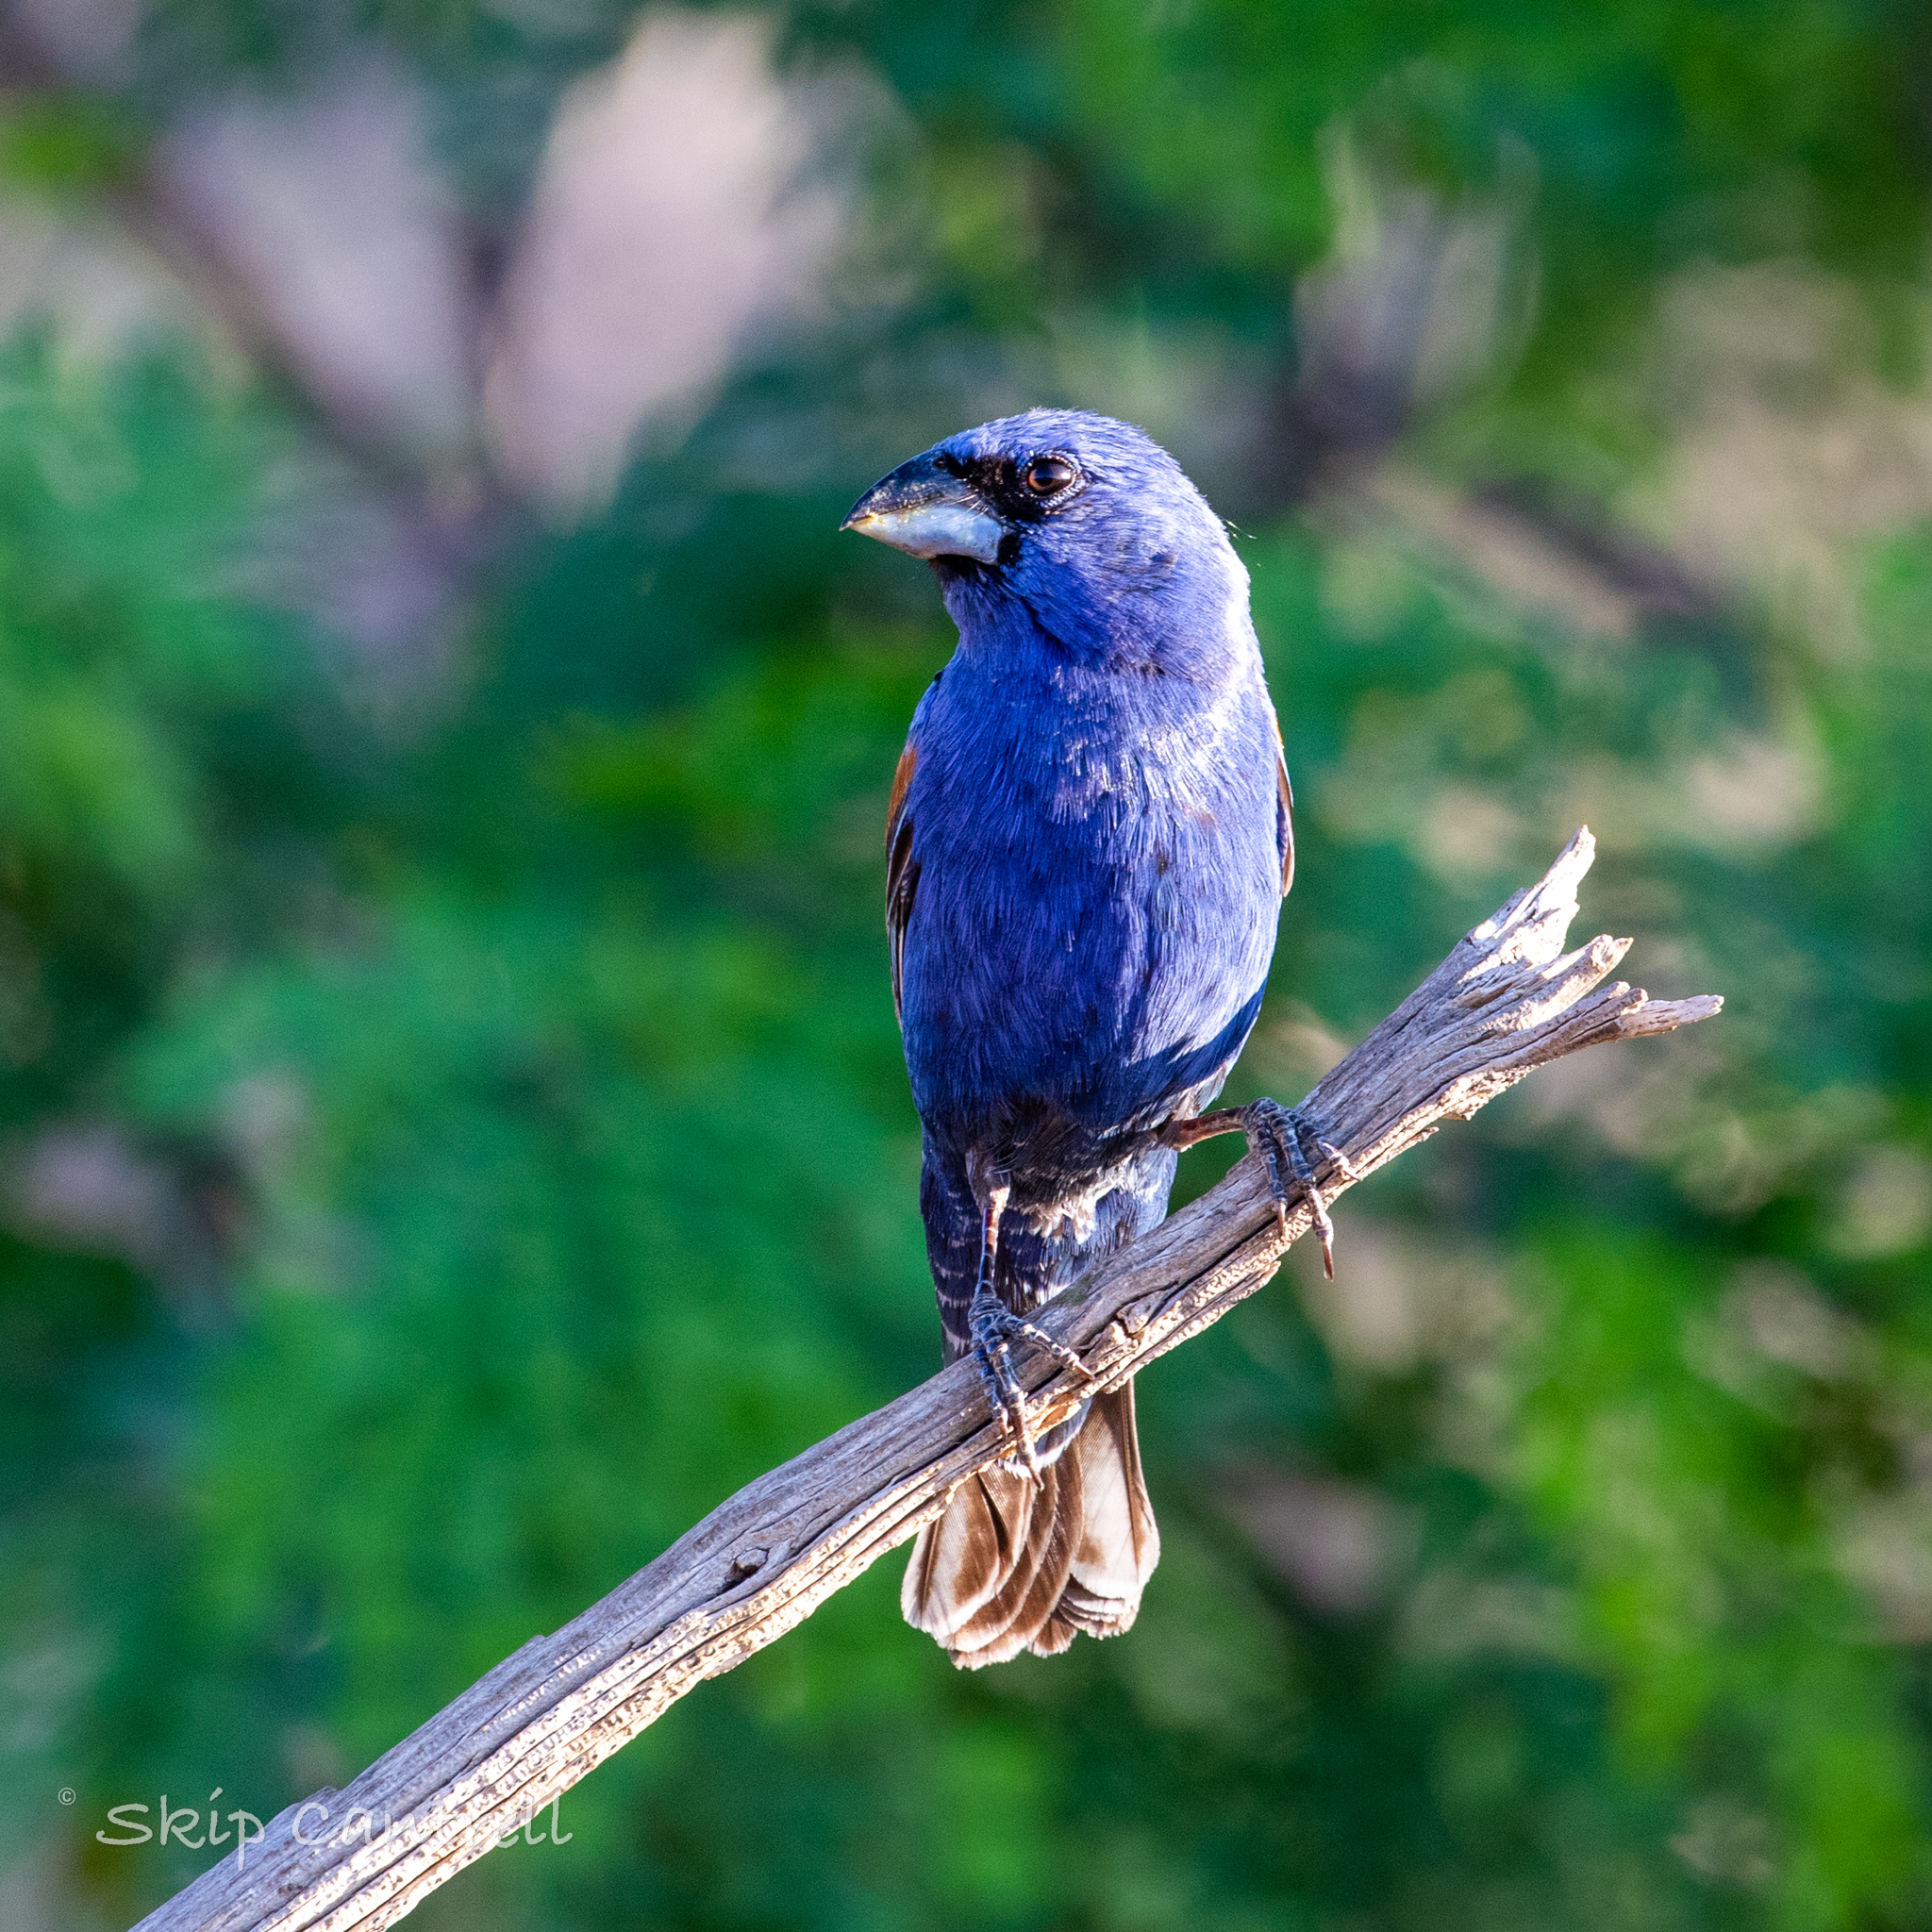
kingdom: Animalia
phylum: Chordata
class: Aves
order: Passeriformes
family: Cardinalidae
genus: Passerina
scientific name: Passerina caerulea
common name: Blue grosbeak
